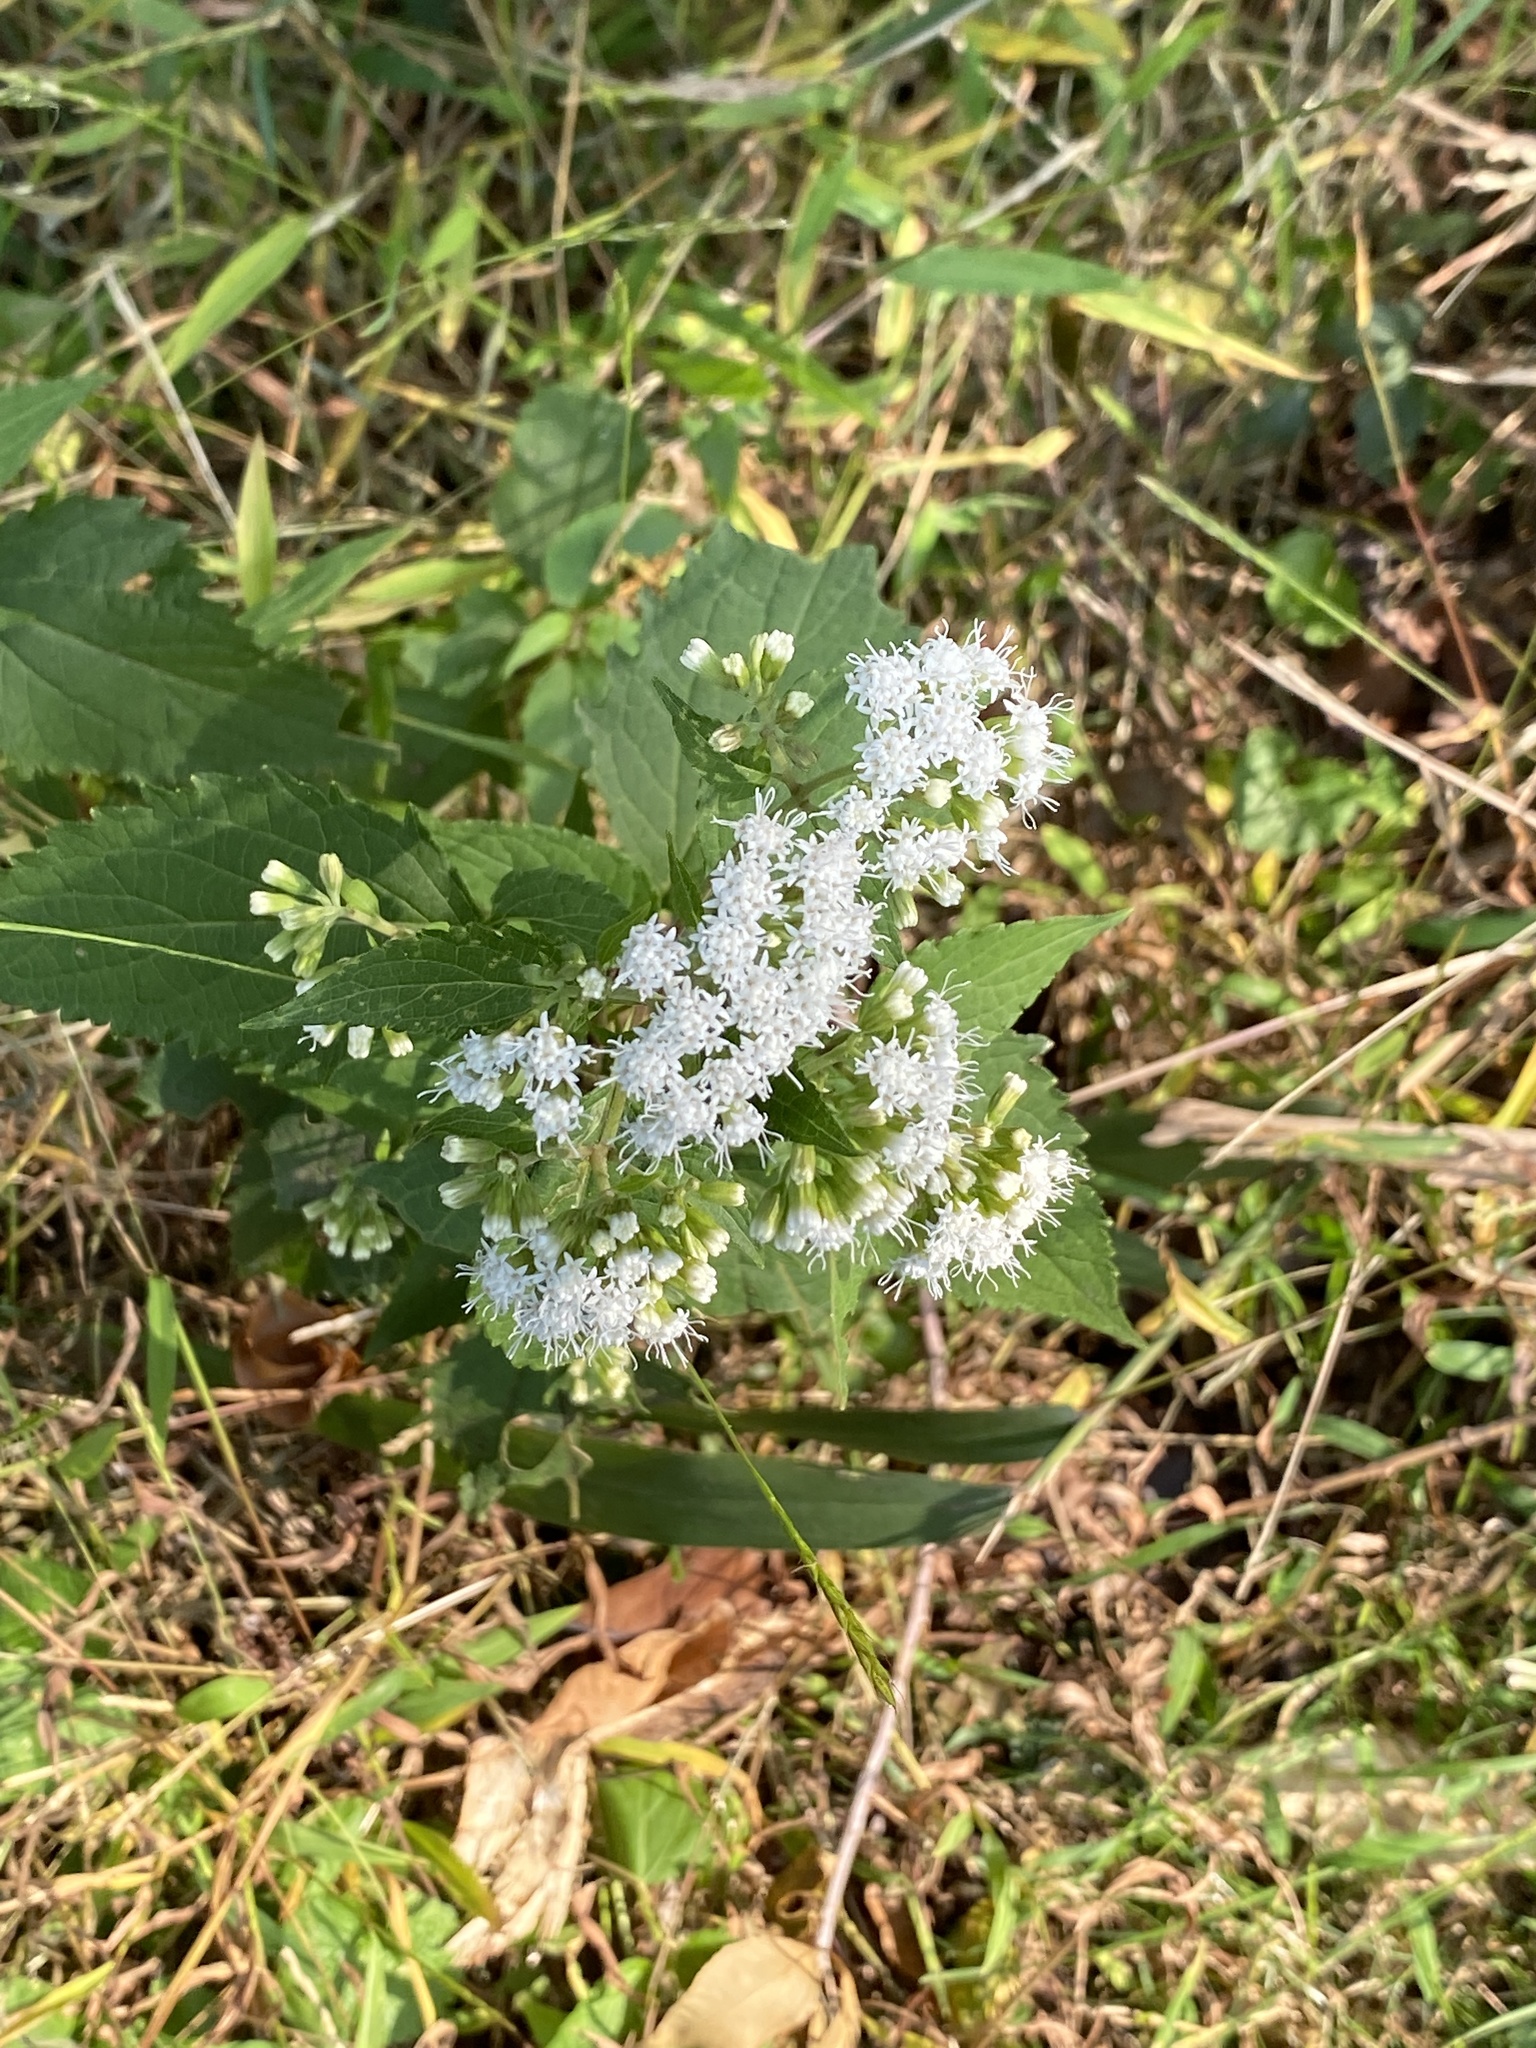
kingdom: Plantae
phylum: Tracheophyta
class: Magnoliopsida
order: Asterales
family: Asteraceae
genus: Ageratina
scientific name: Ageratina altissima
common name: White snakeroot
